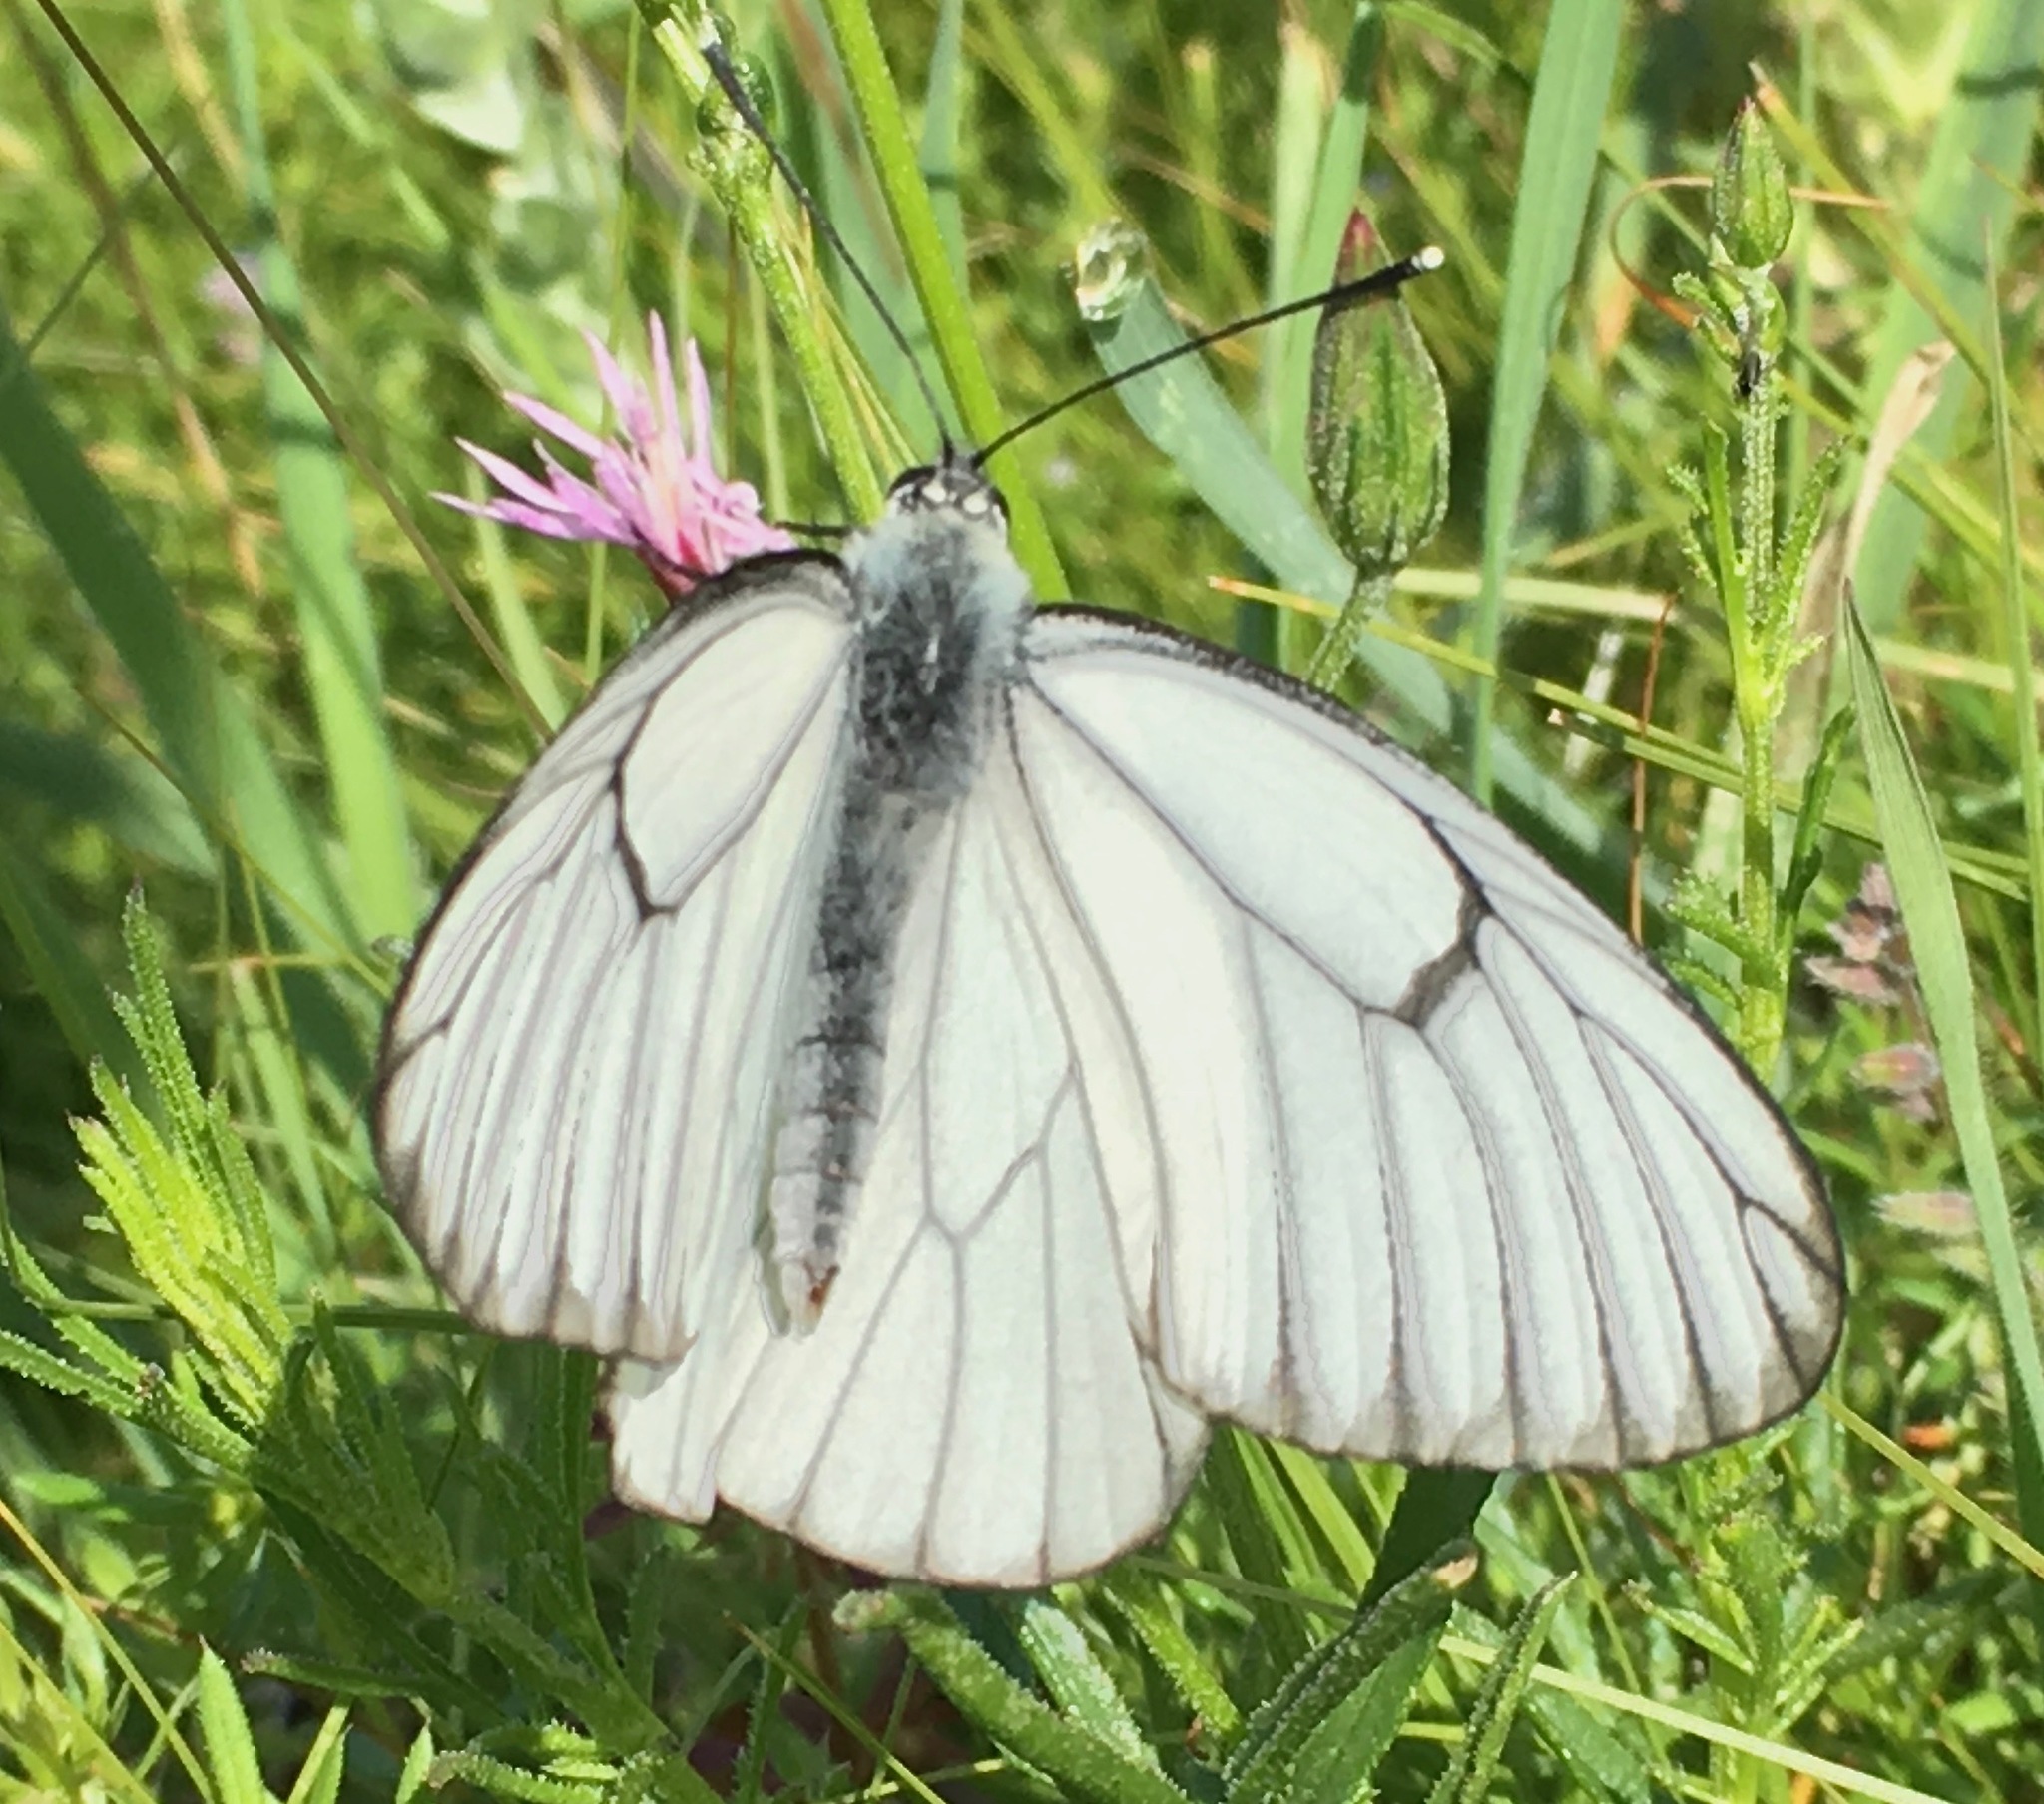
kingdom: Animalia
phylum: Arthropoda
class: Insecta
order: Lepidoptera
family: Pieridae
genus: Aporia
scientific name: Aporia crataegi
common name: Black-veined white
